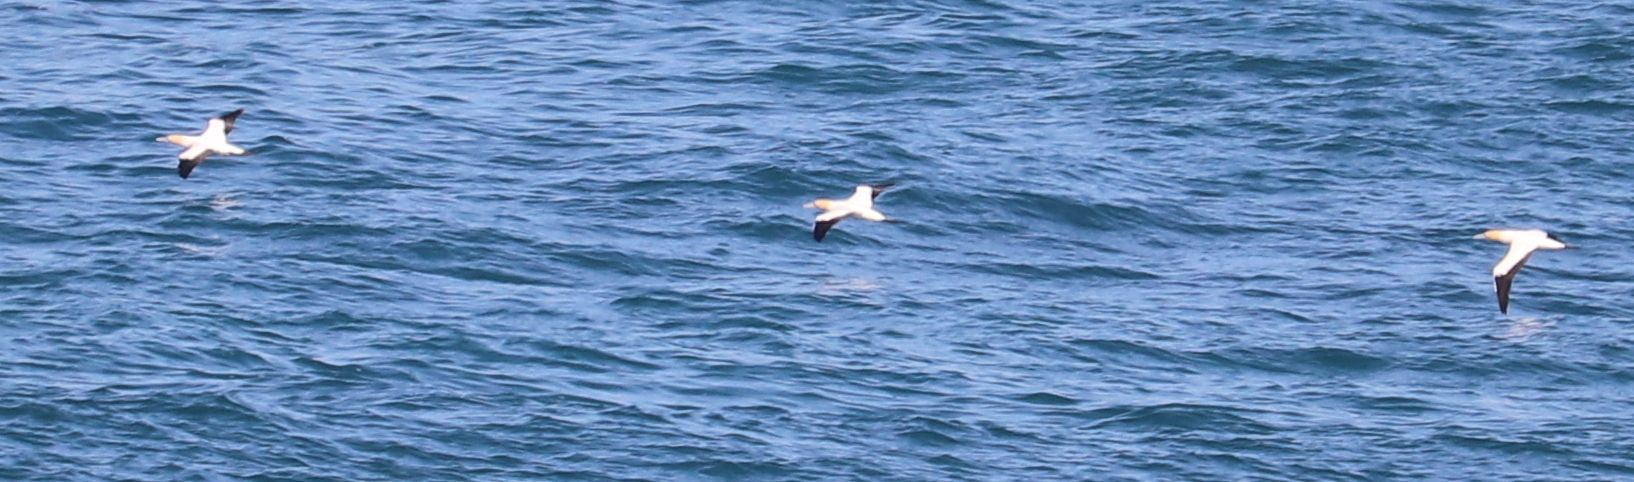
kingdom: Animalia
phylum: Chordata
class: Aves
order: Suliformes
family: Sulidae
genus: Morus
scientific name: Morus capensis
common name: Cape gannet
